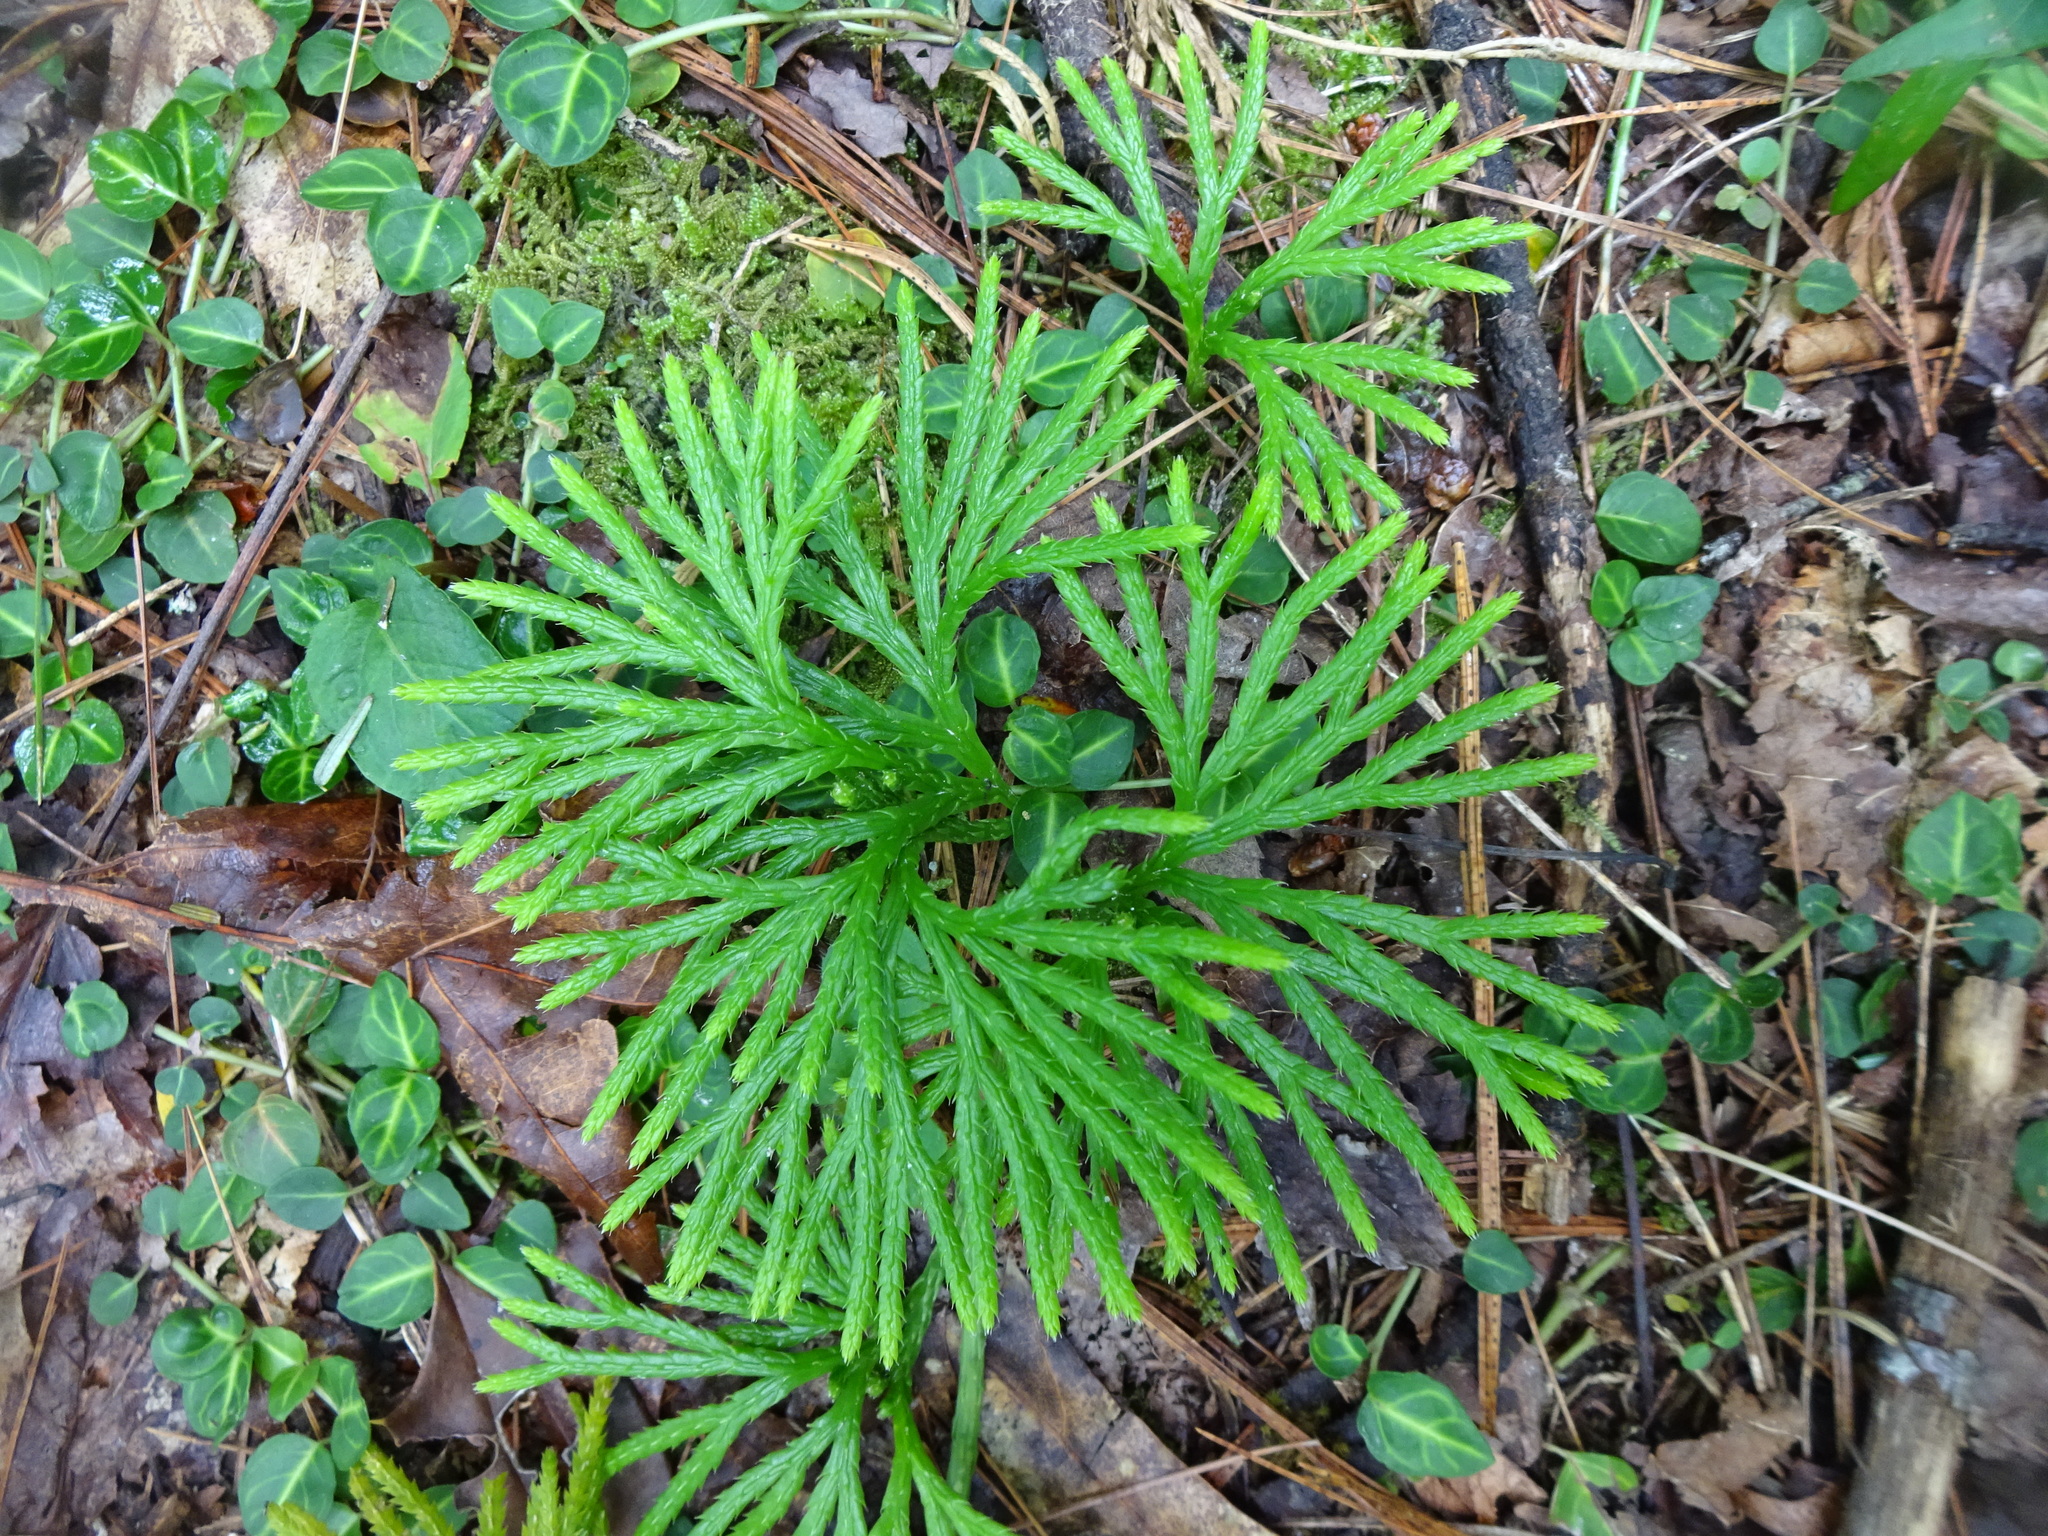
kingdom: Plantae
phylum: Tracheophyta
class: Lycopodiopsida
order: Lycopodiales
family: Lycopodiaceae
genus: Diphasiastrum
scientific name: Diphasiastrum digitatum
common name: Southern running-pine
